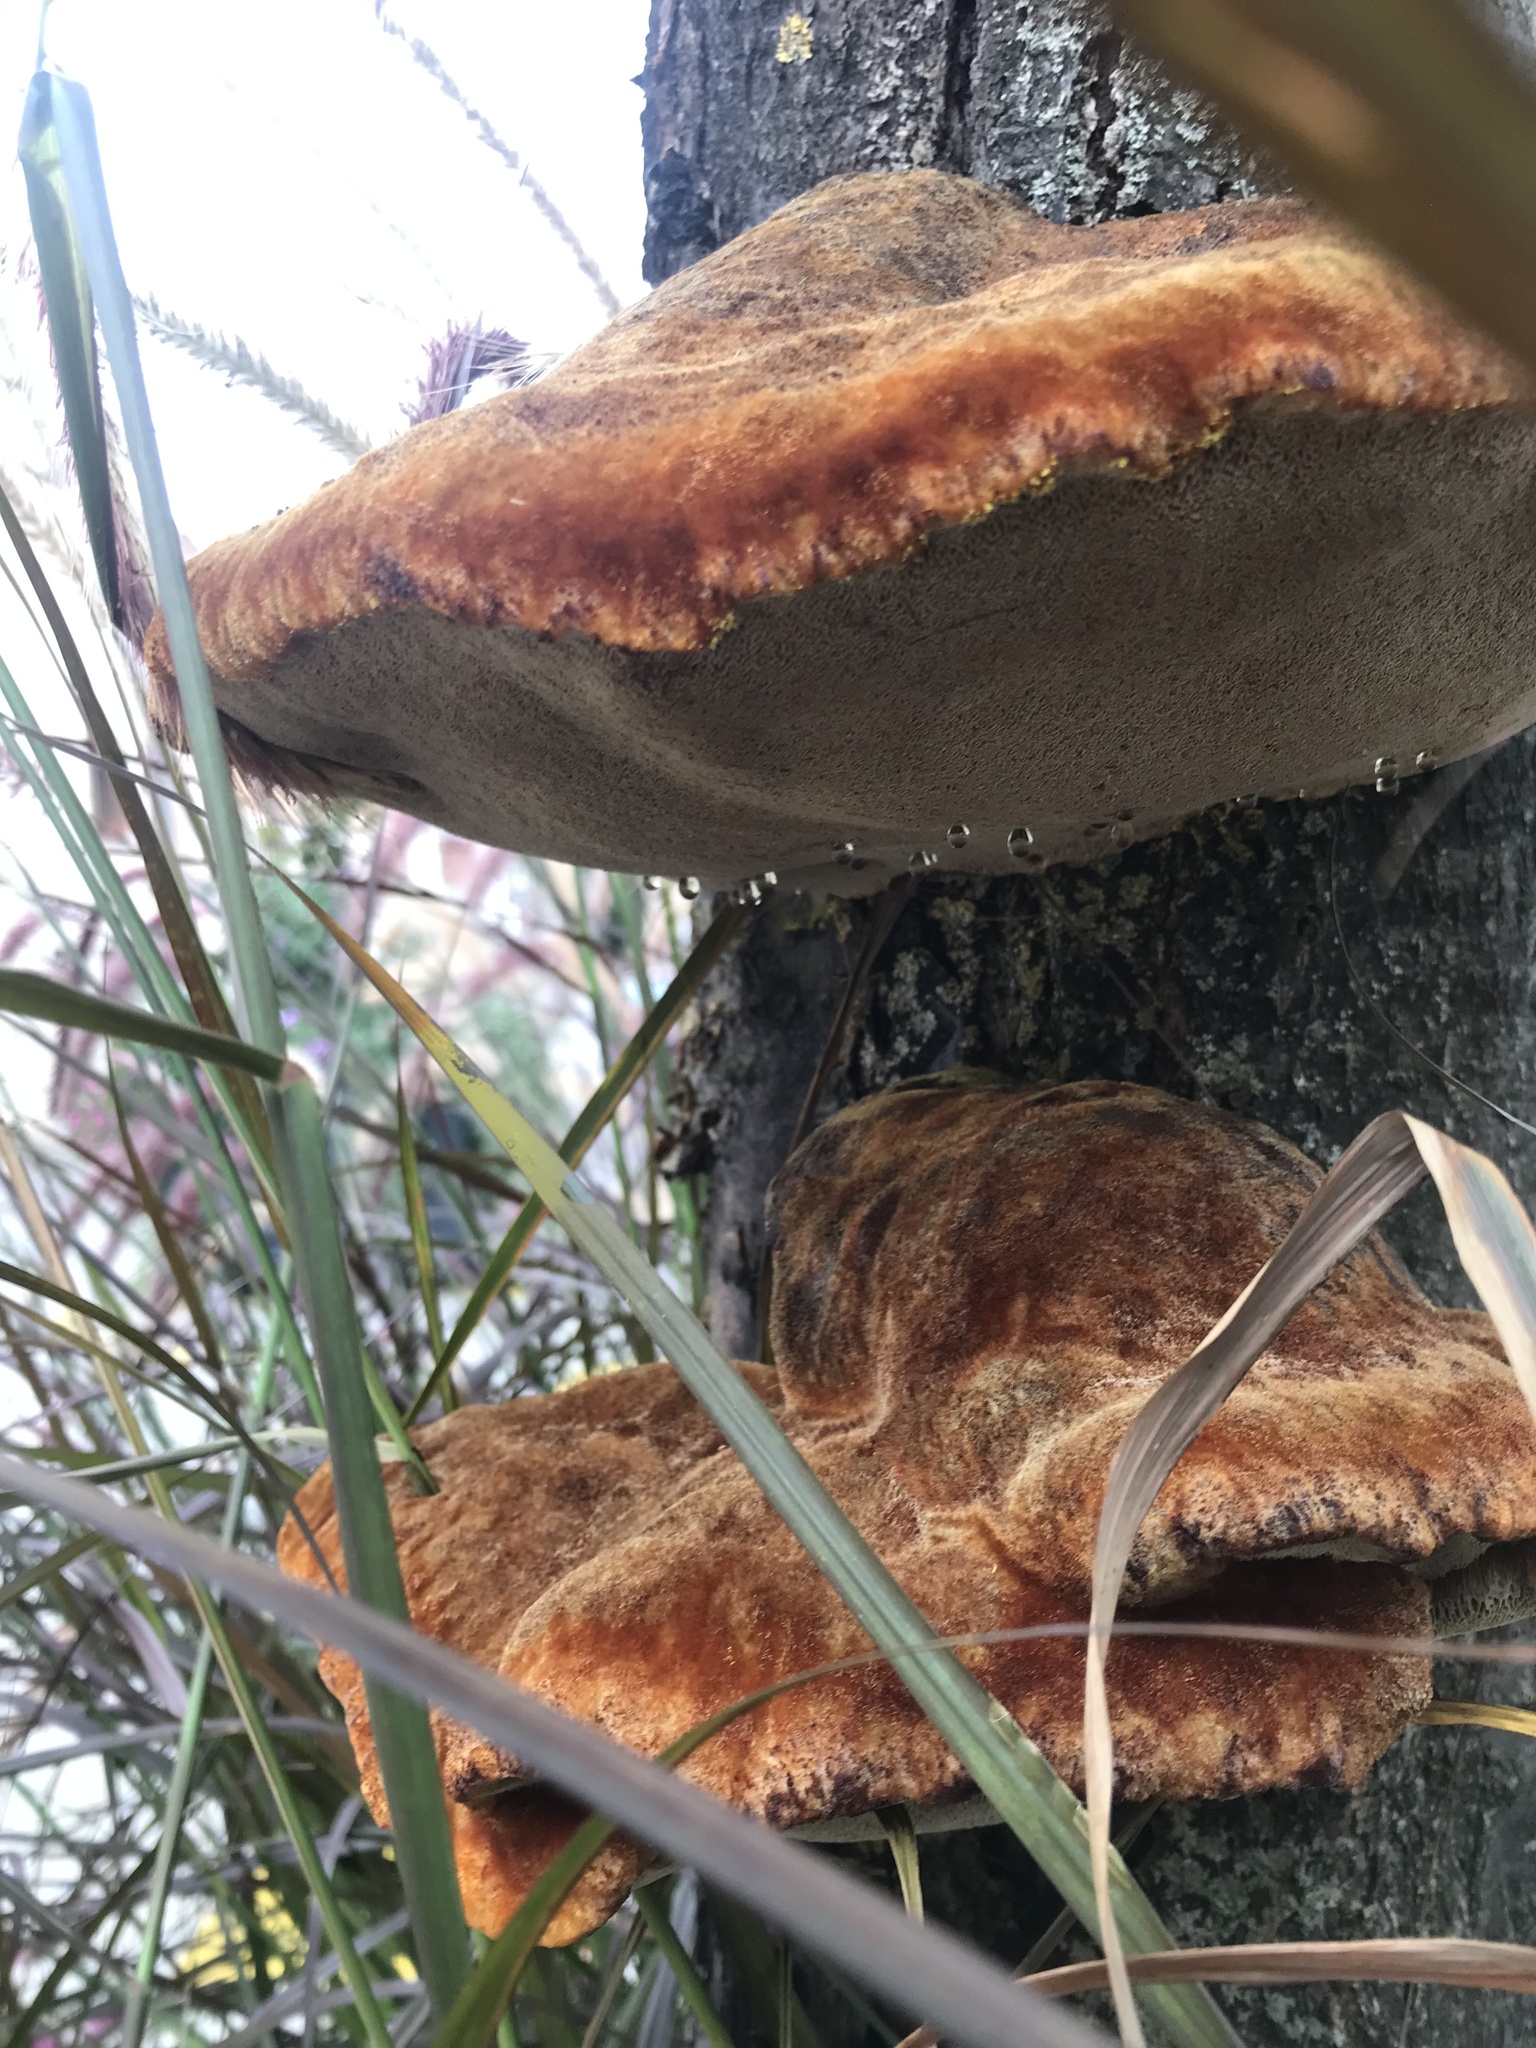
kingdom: Fungi
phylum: Basidiomycota
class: Agaricomycetes
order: Hymenochaetales
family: Hymenochaetaceae
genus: Inonotus
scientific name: Inonotus hispidus
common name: Shaggy bracket
